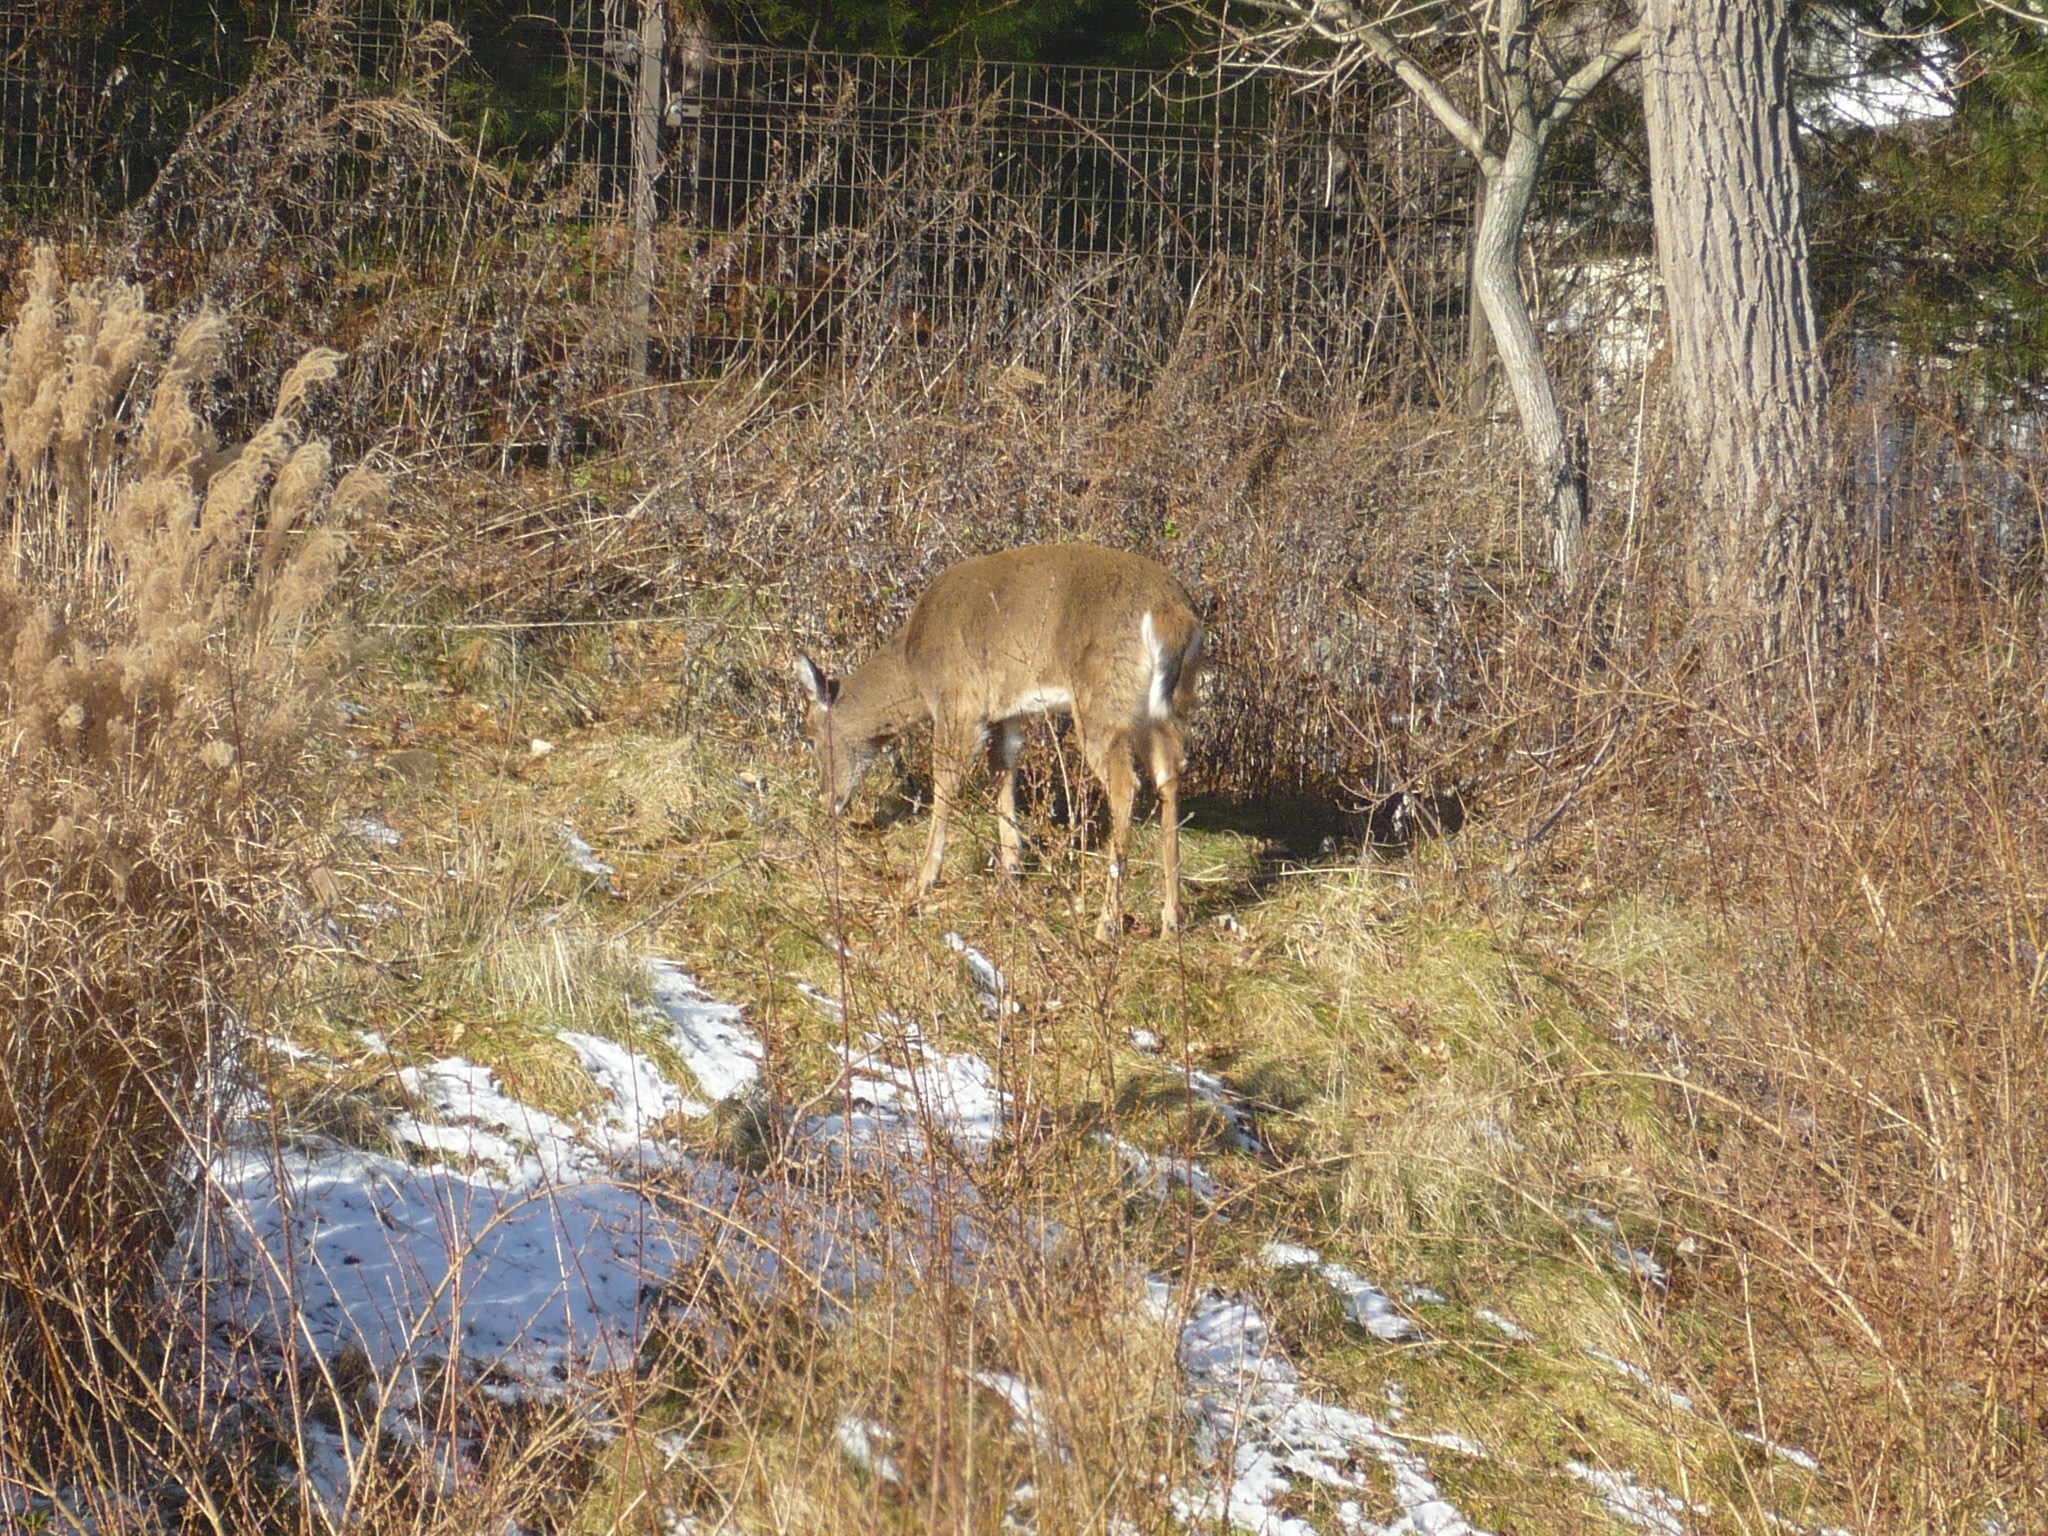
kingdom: Animalia
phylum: Chordata
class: Mammalia
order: Artiodactyla
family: Cervidae
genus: Odocoileus
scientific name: Odocoileus virginianus
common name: White-tailed deer
